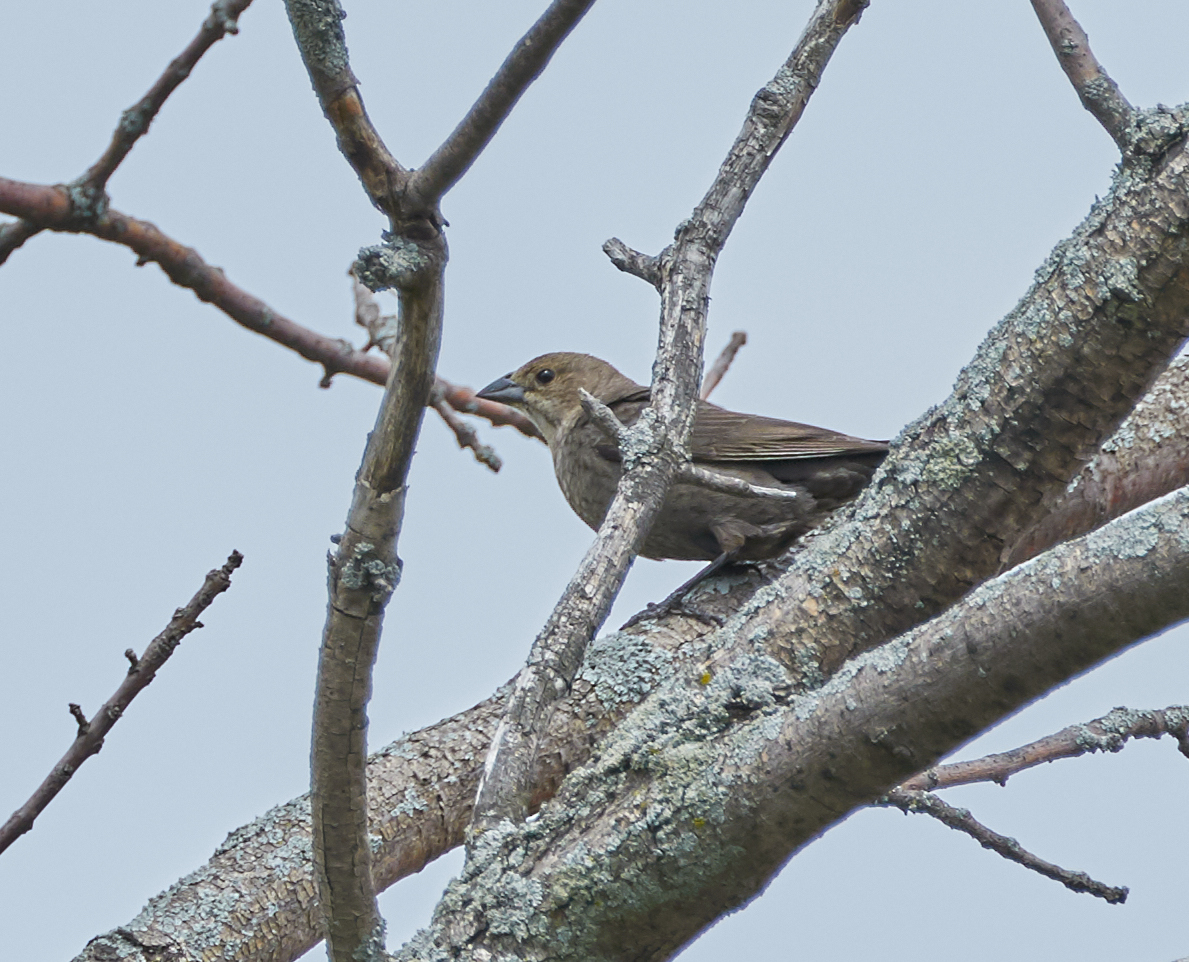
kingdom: Animalia
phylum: Chordata
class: Aves
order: Passeriformes
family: Icteridae
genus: Molothrus
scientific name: Molothrus ater
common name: Brown-headed cowbird
